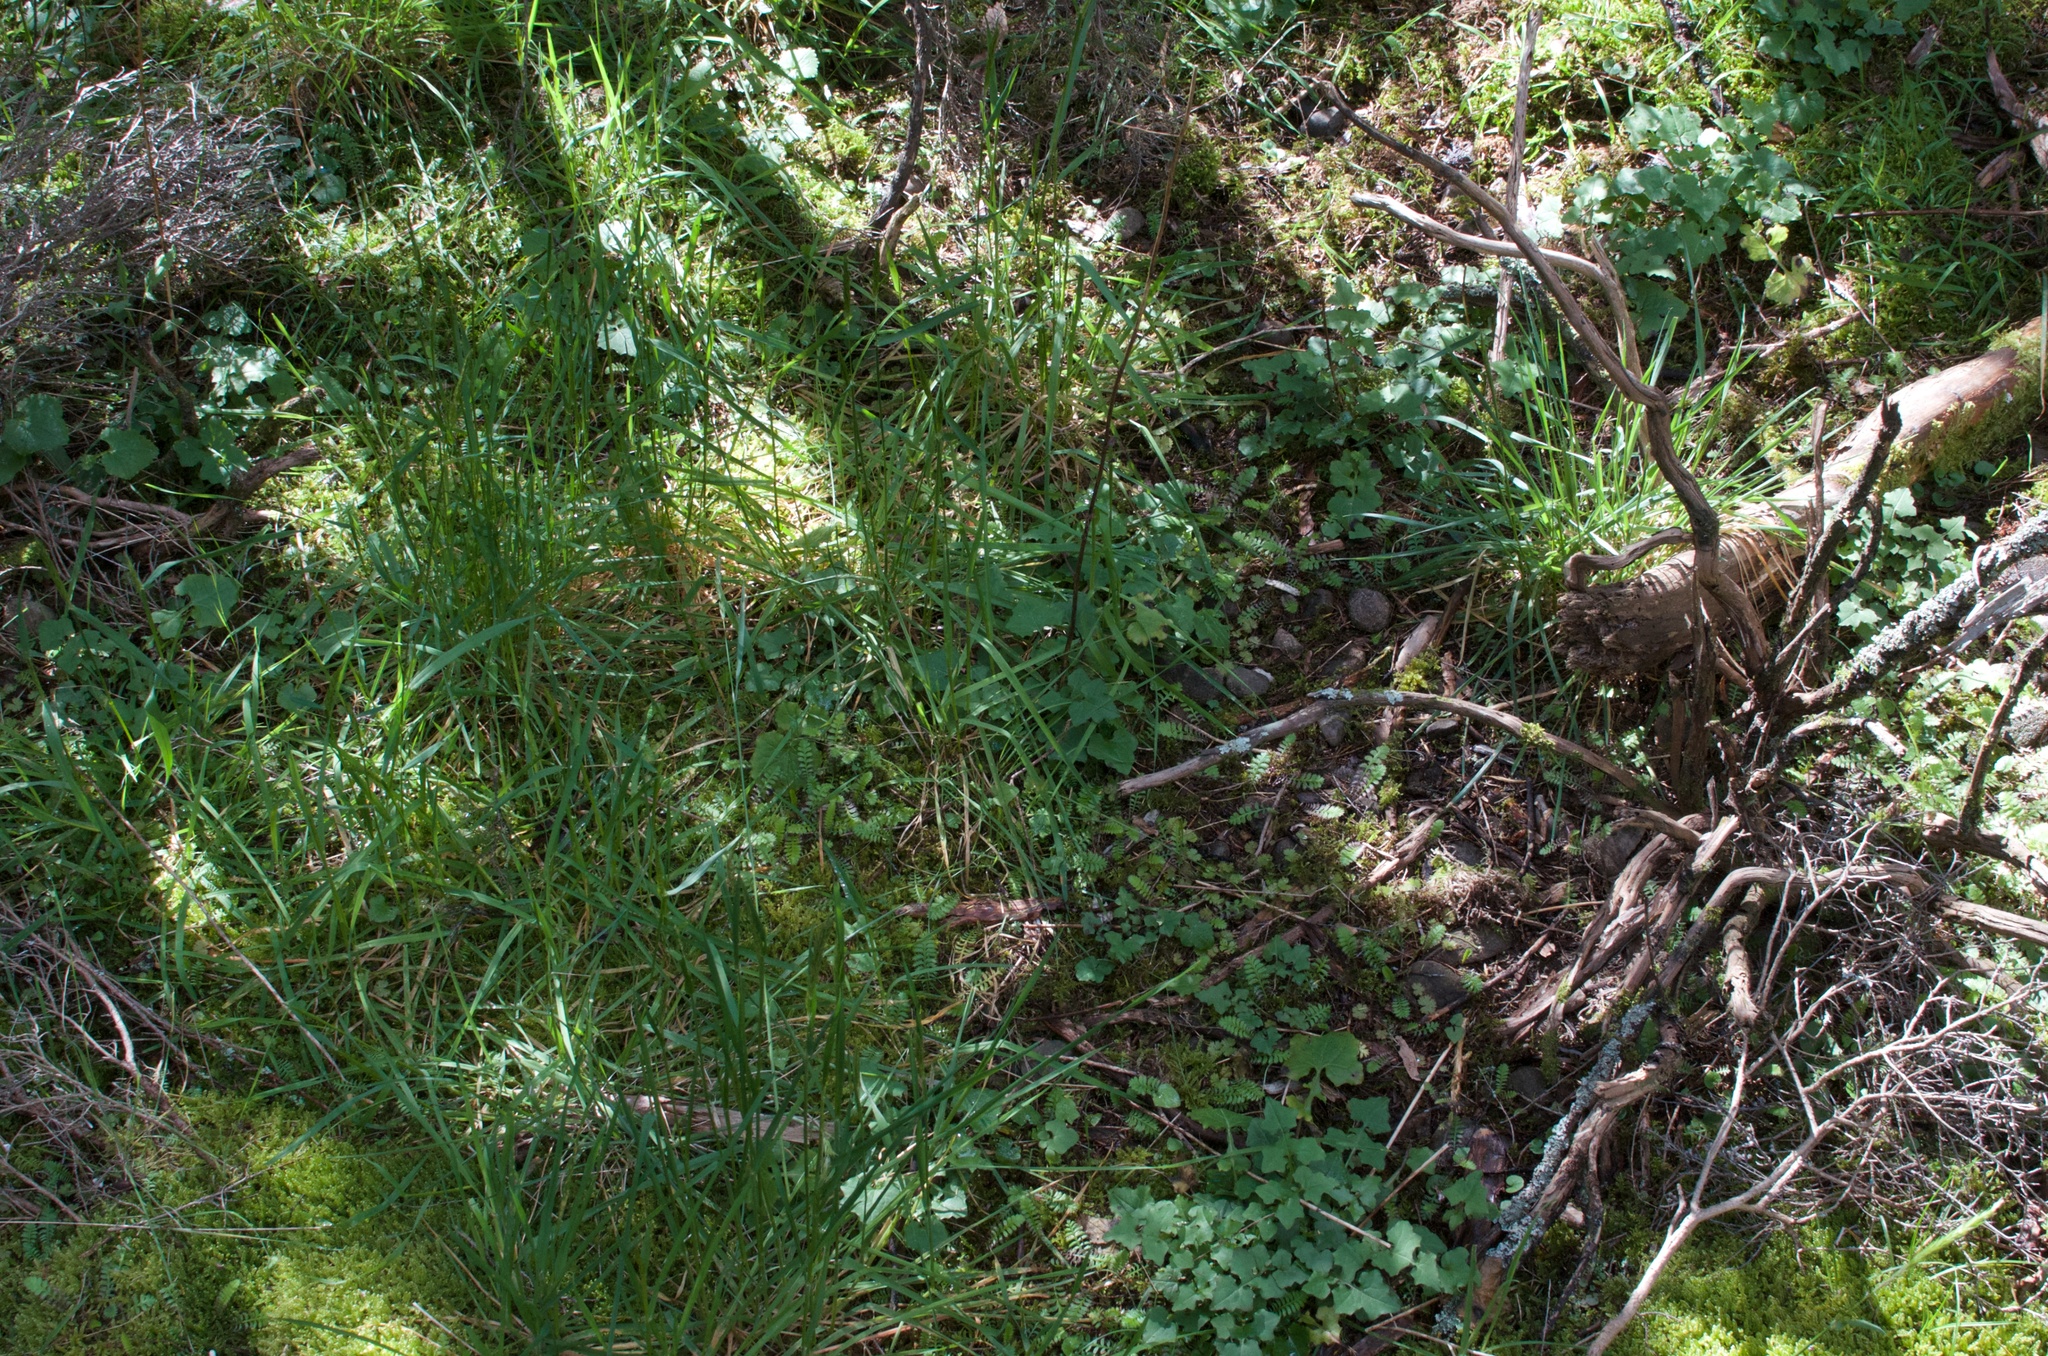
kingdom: Plantae
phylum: Tracheophyta
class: Magnoliopsida
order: Asterales
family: Asteraceae
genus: Mycelis
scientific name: Mycelis muralis
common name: Wall lettuce
